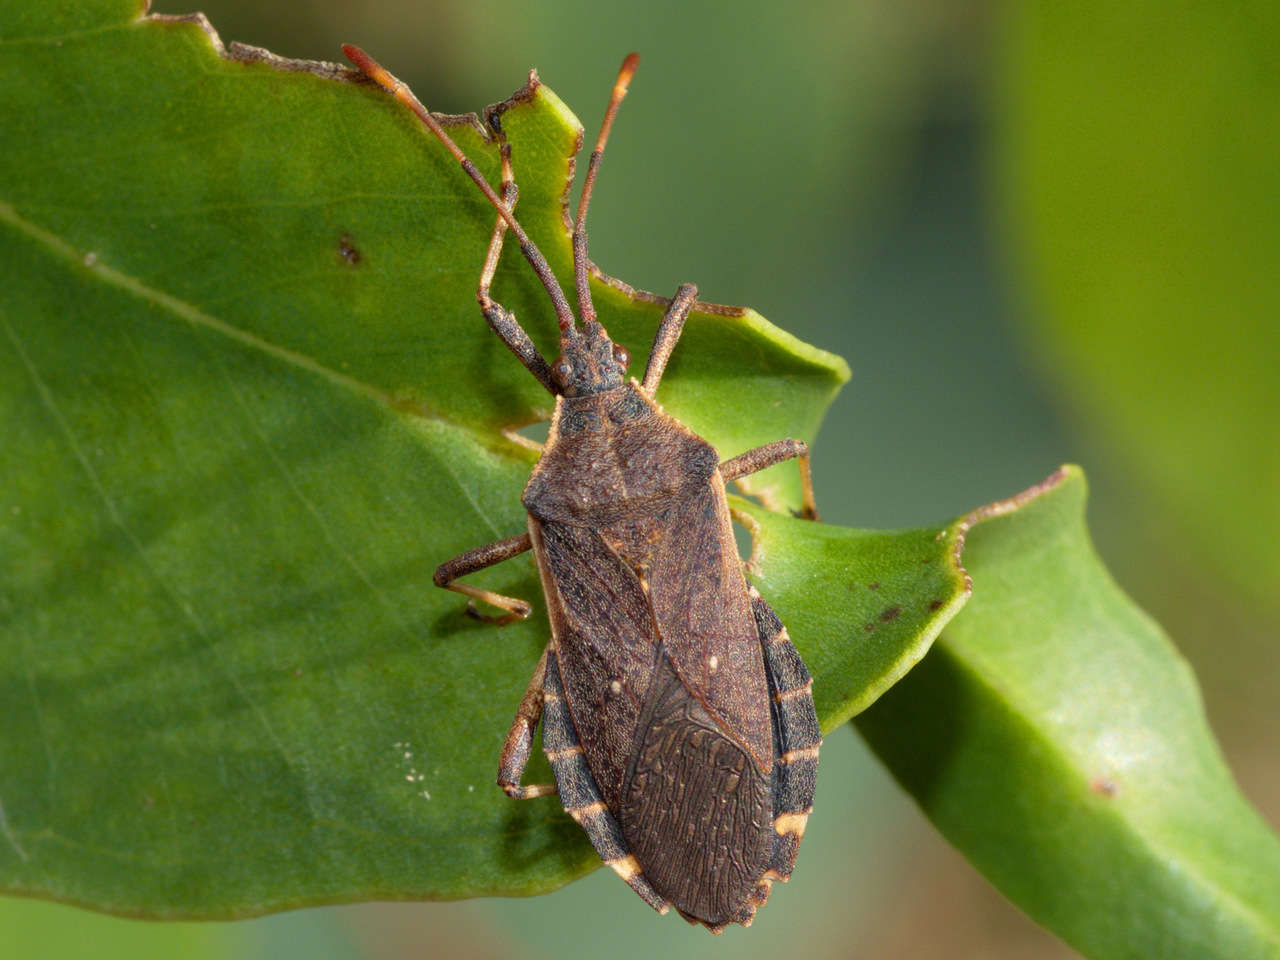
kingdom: Animalia
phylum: Arthropoda
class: Insecta
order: Hemiptera
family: Coreidae
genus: Gelonus
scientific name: Gelonus tasmanicus
